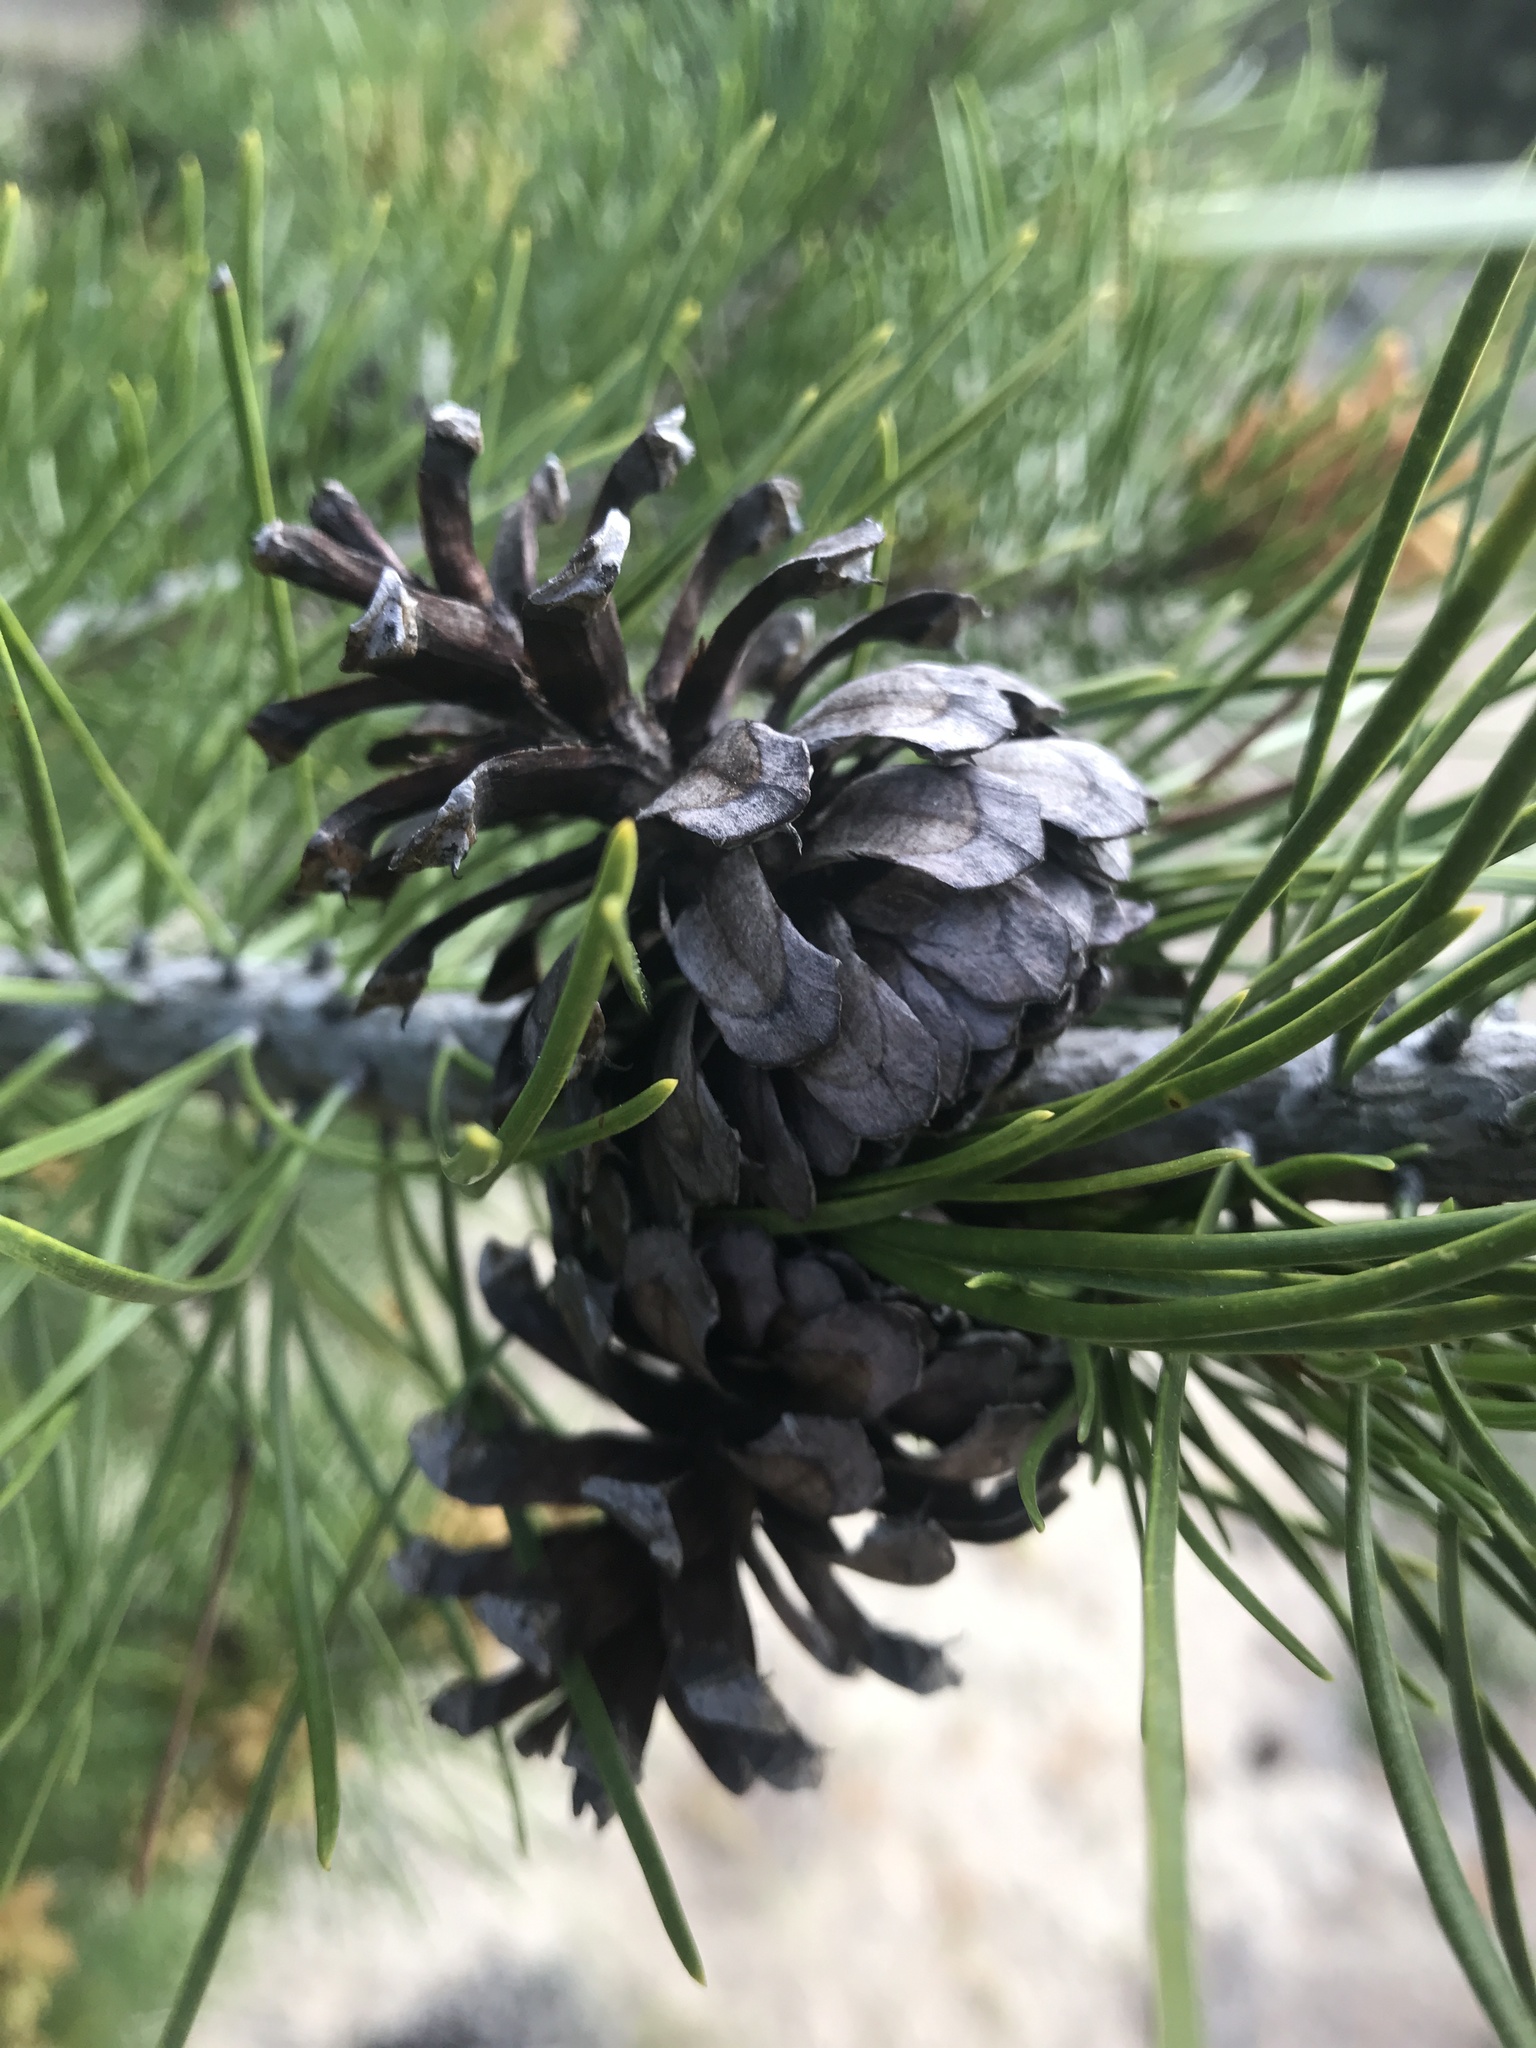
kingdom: Plantae
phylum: Tracheophyta
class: Pinopsida
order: Pinales
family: Pinaceae
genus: Pinus
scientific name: Pinus contorta
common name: Lodgepole pine
